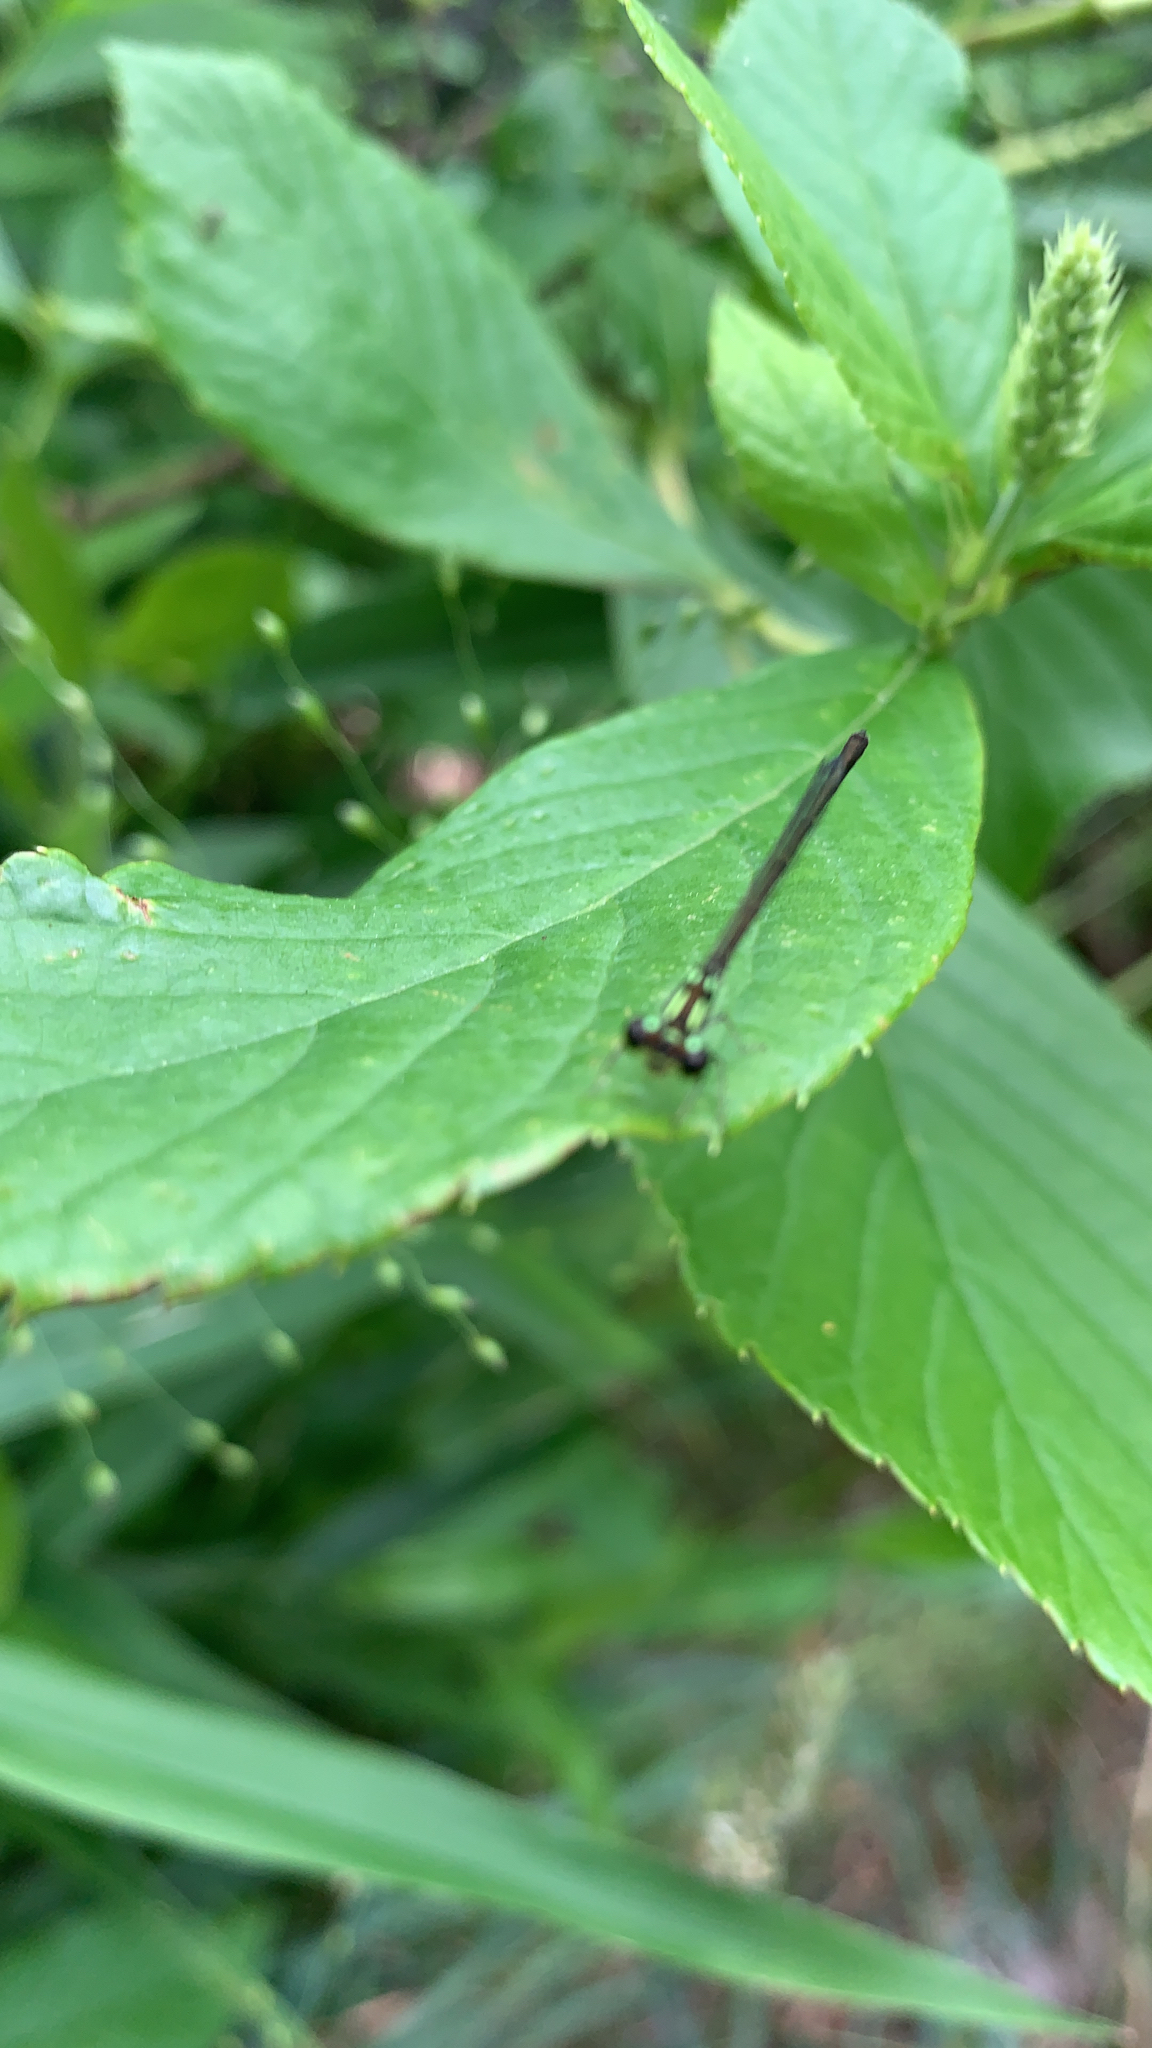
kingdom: Animalia
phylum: Arthropoda
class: Insecta
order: Odonata
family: Coenagrionidae
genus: Ischnura
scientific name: Ischnura posita
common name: Fragile forktail
